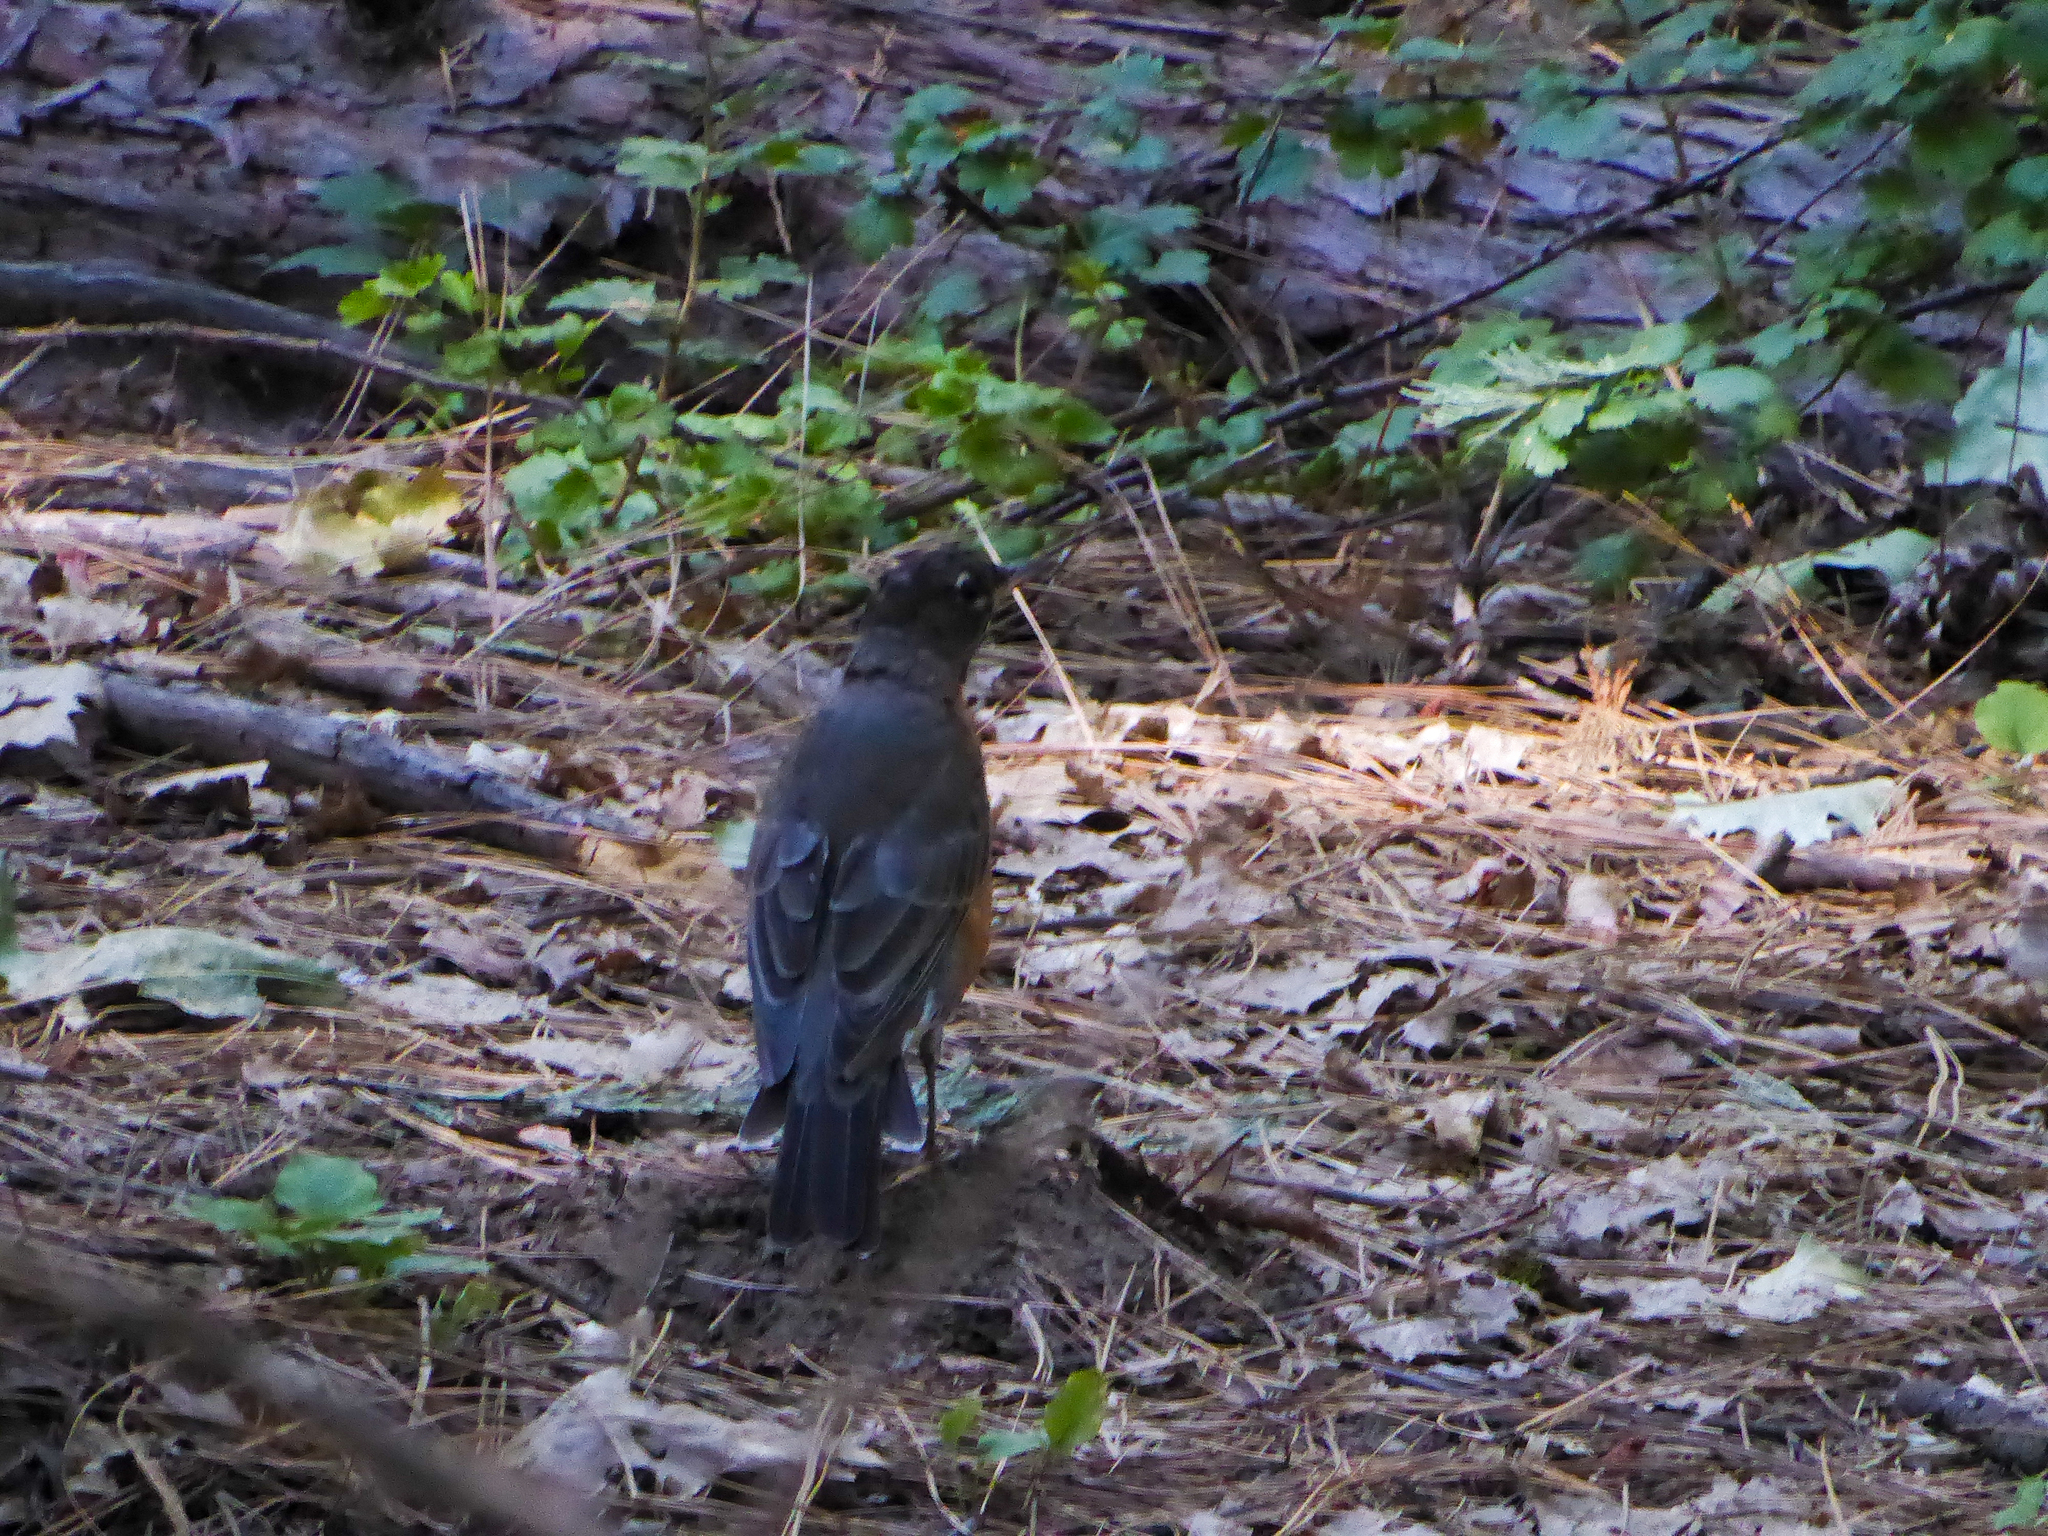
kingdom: Animalia
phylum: Chordata
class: Aves
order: Passeriformes
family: Turdidae
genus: Turdus
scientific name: Turdus migratorius
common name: American robin
